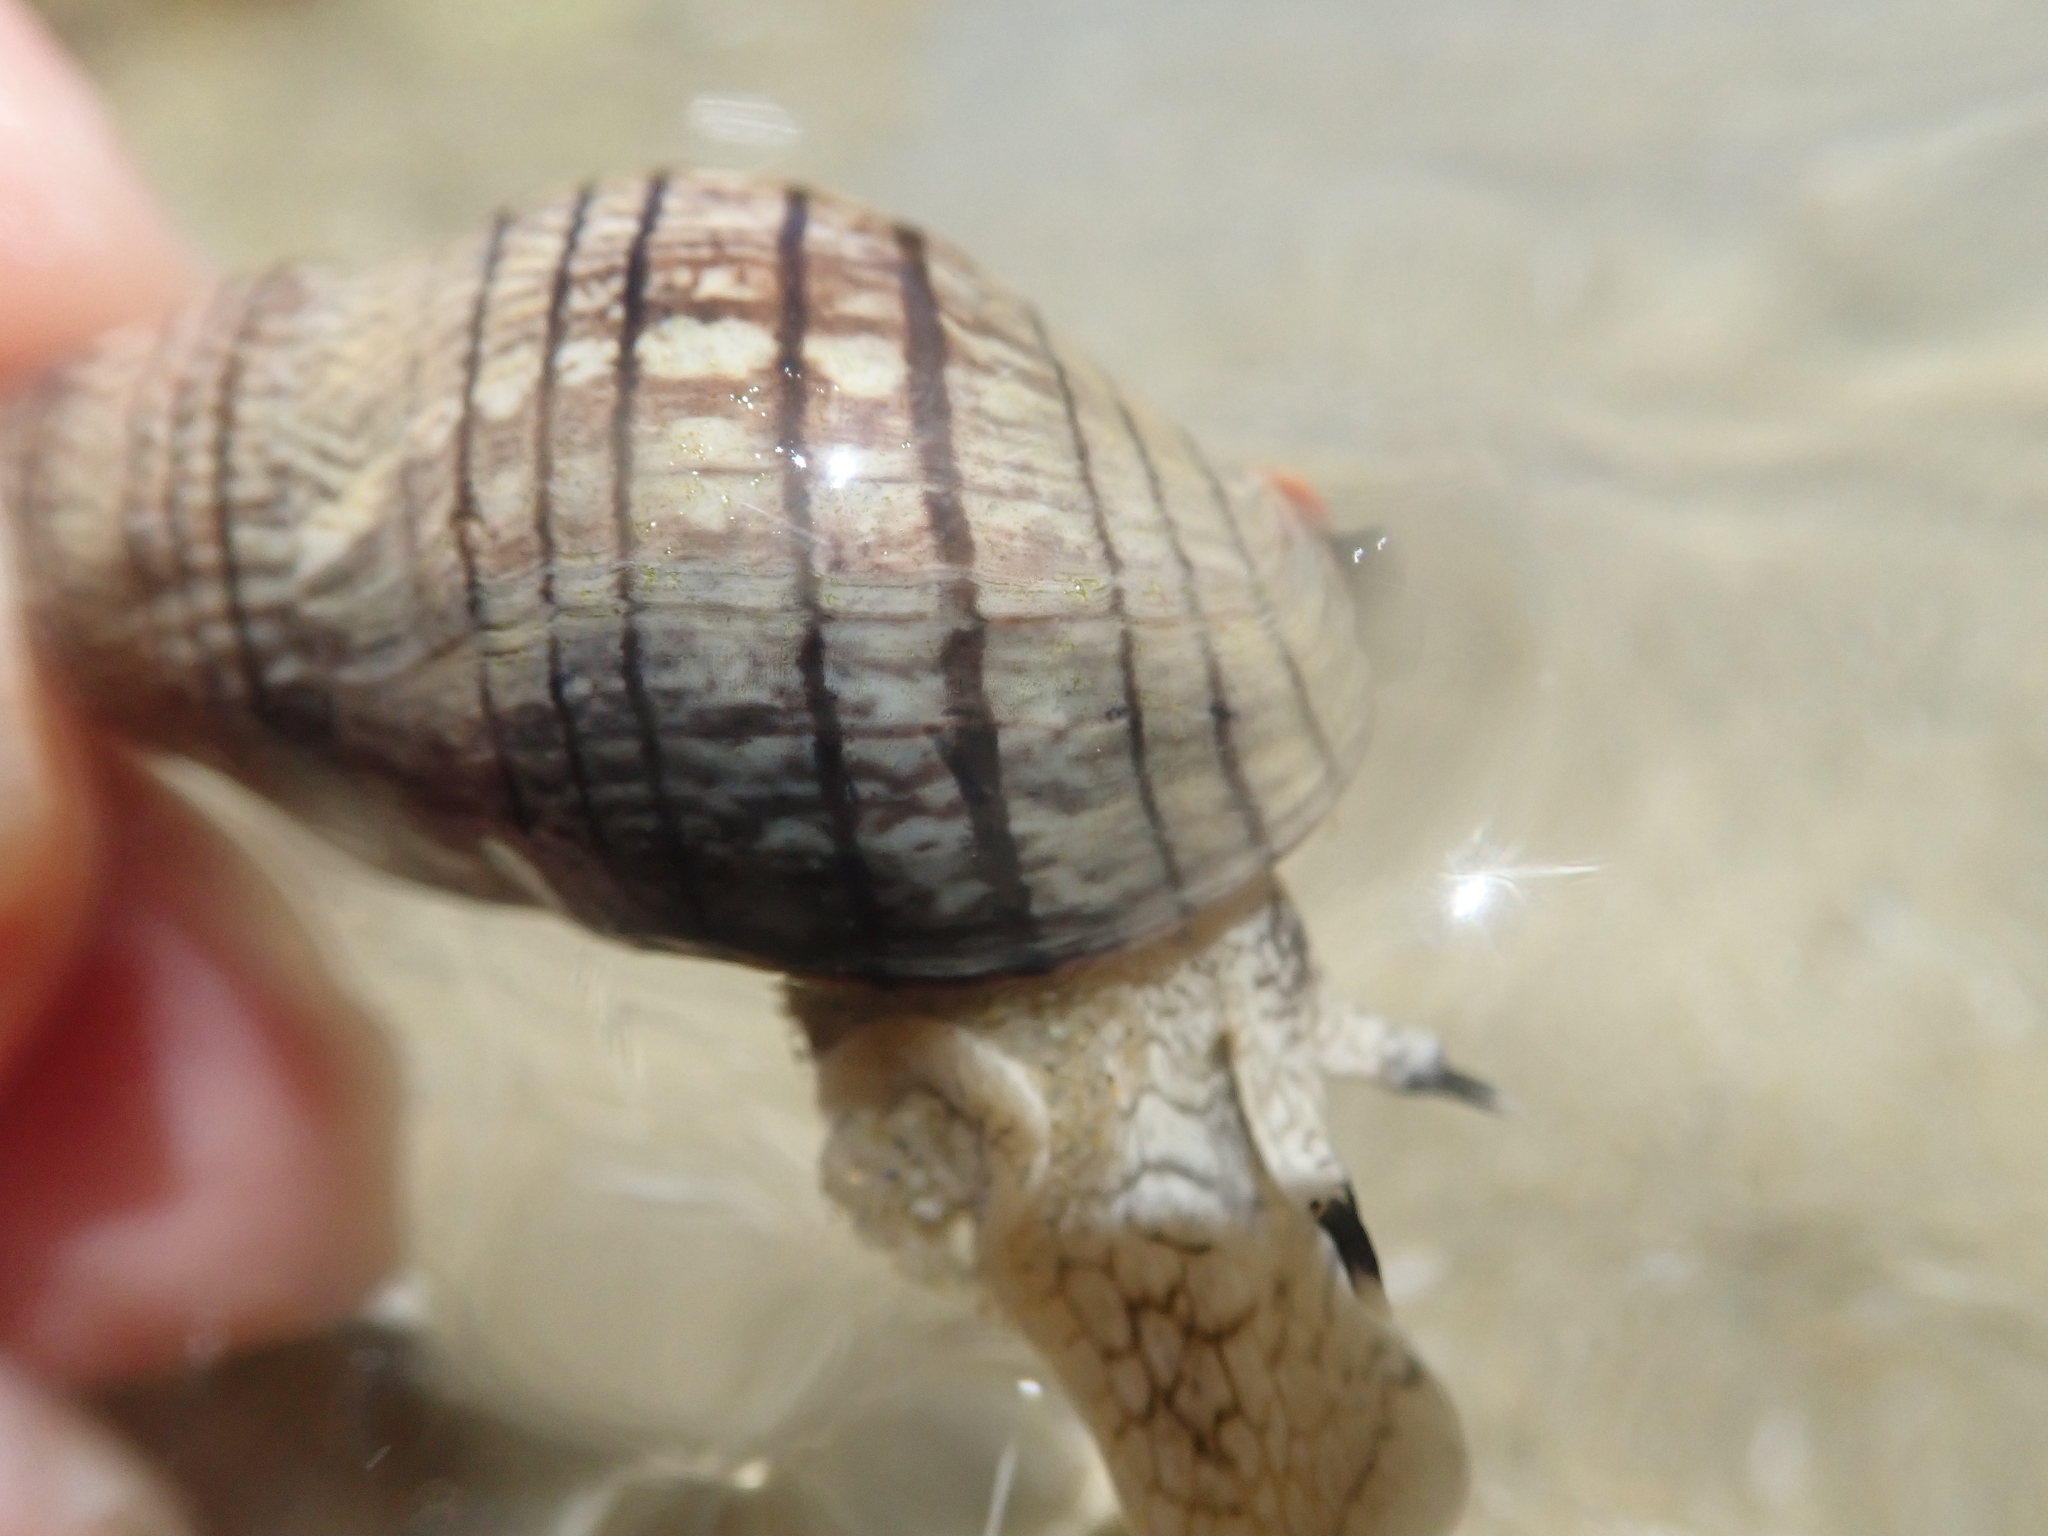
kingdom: Animalia
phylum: Mollusca
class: Gastropoda
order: Neogastropoda
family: Cominellidae
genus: Cominella
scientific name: Cominella virgata
